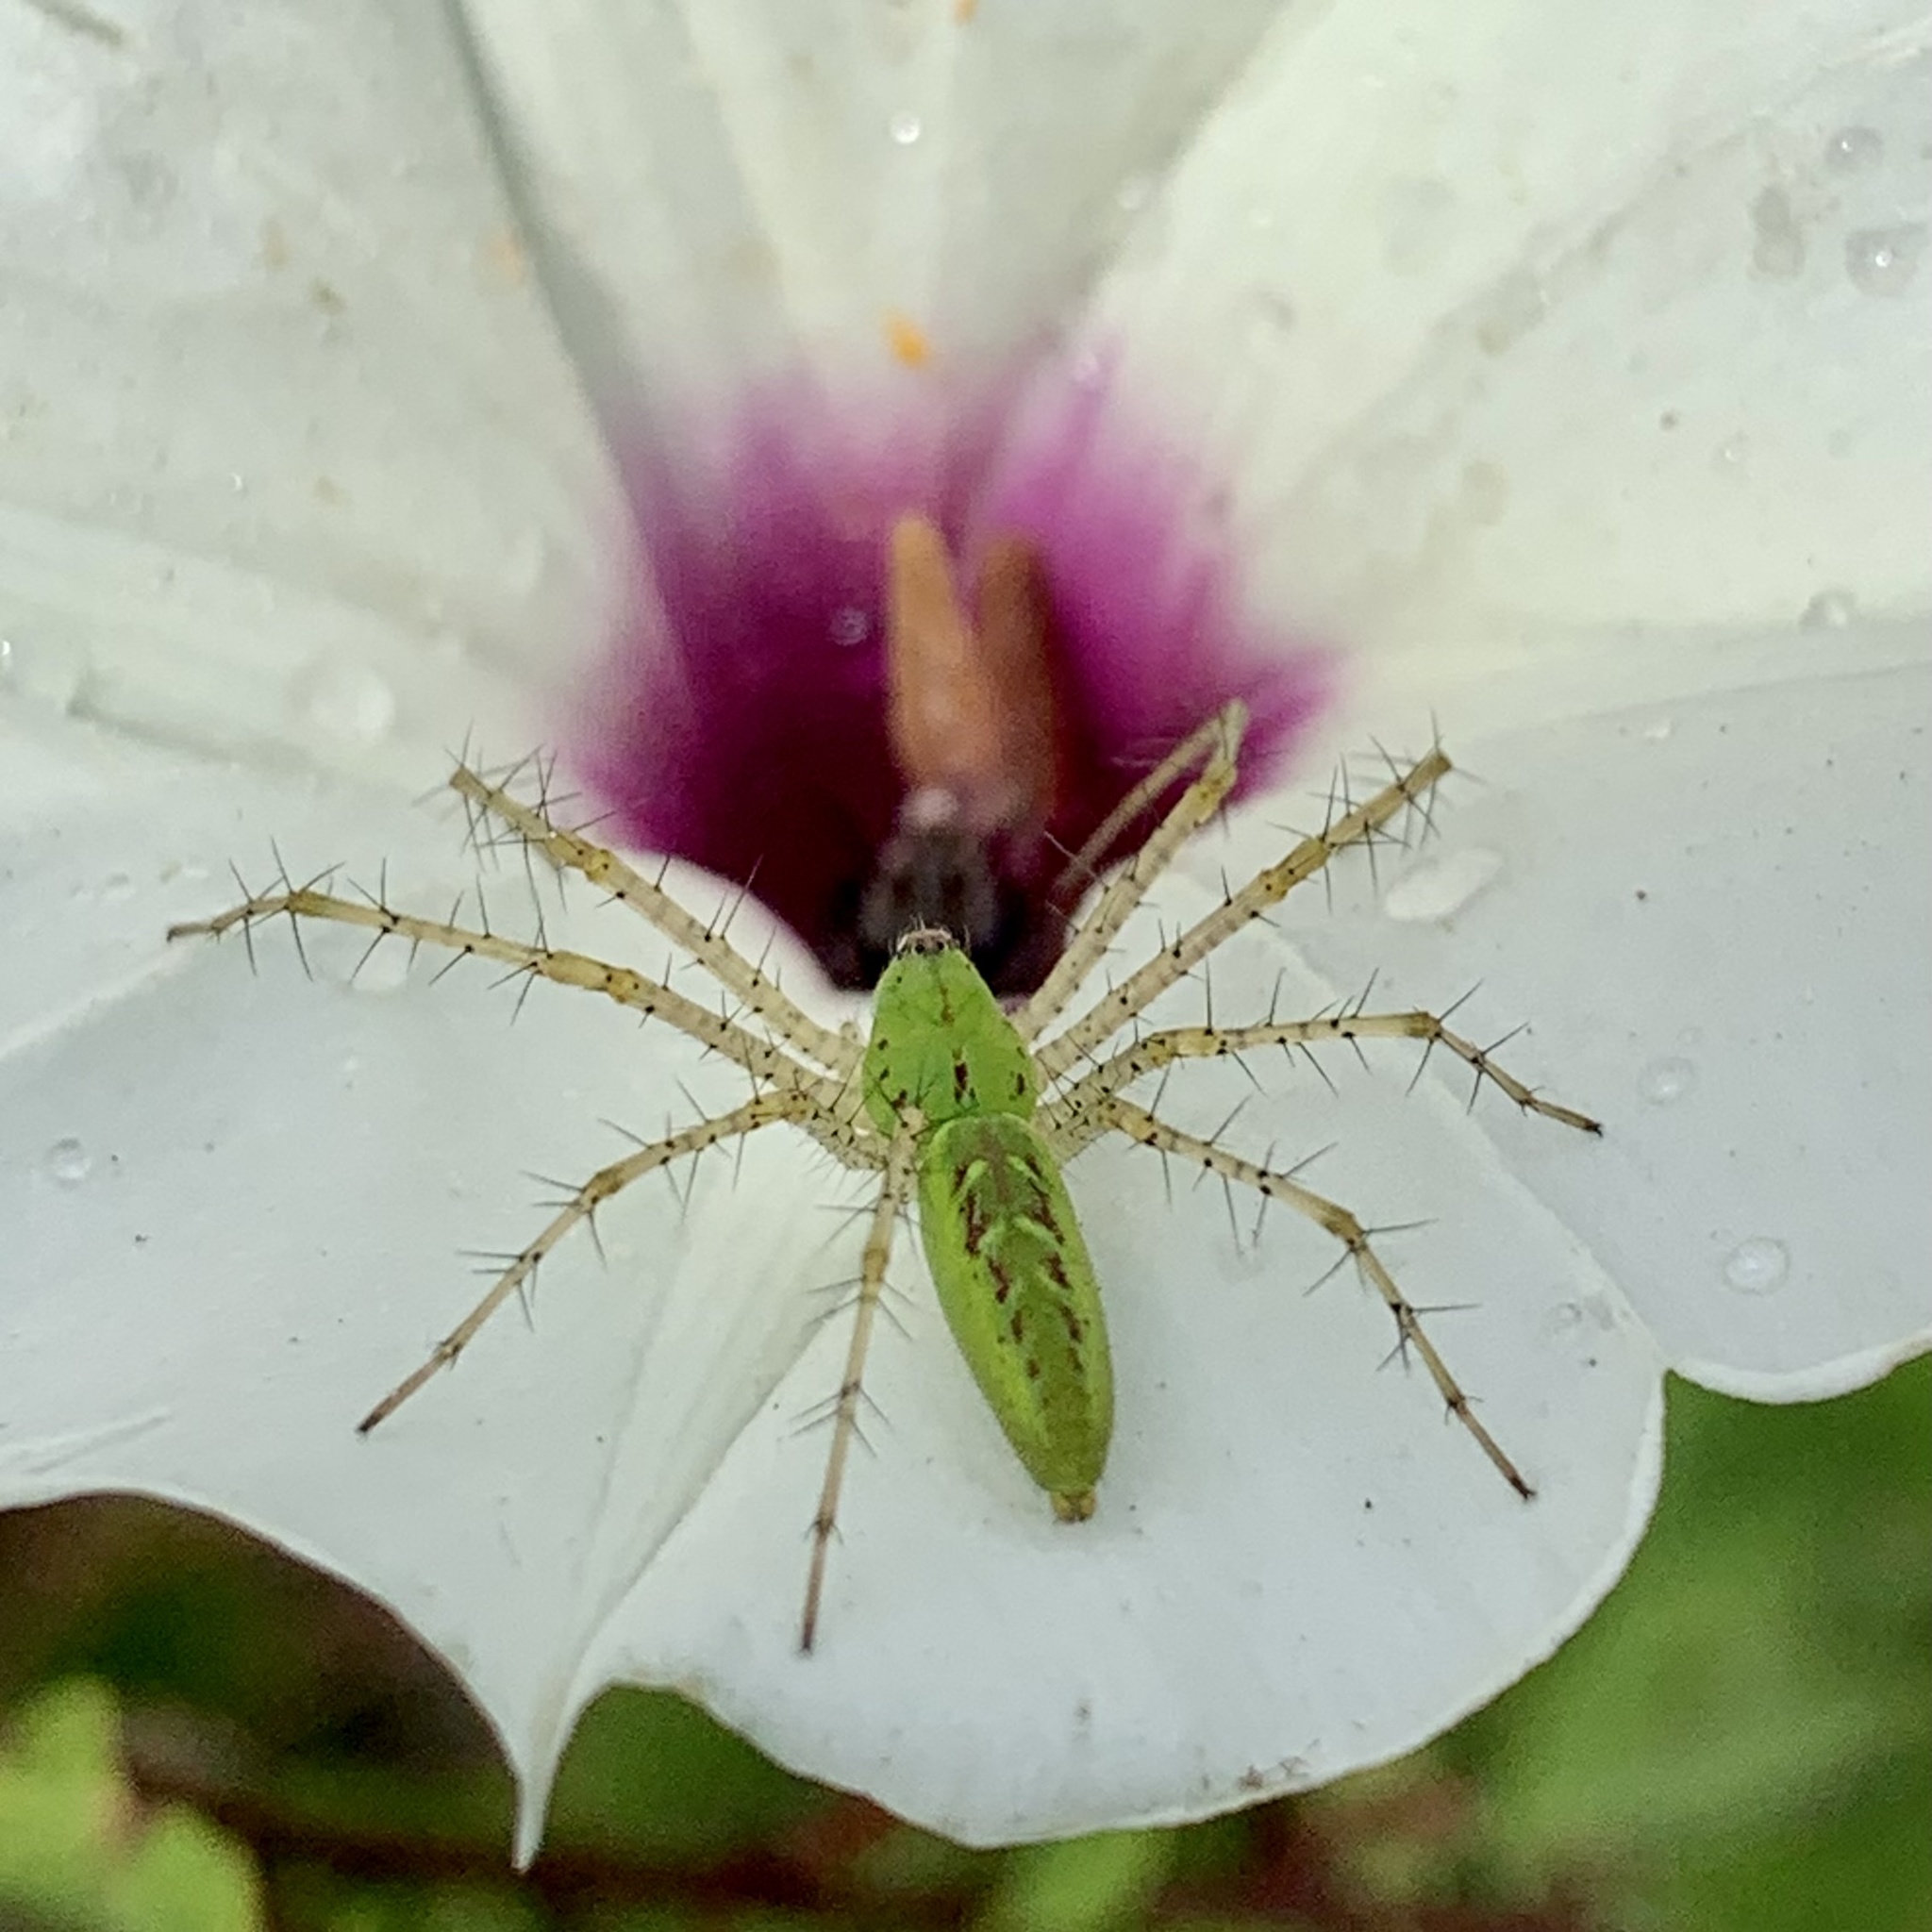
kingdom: Animalia
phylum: Arthropoda
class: Arachnida
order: Araneae
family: Oxyopidae
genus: Peucetia
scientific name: Peucetia viridans
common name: Lynx spiders
